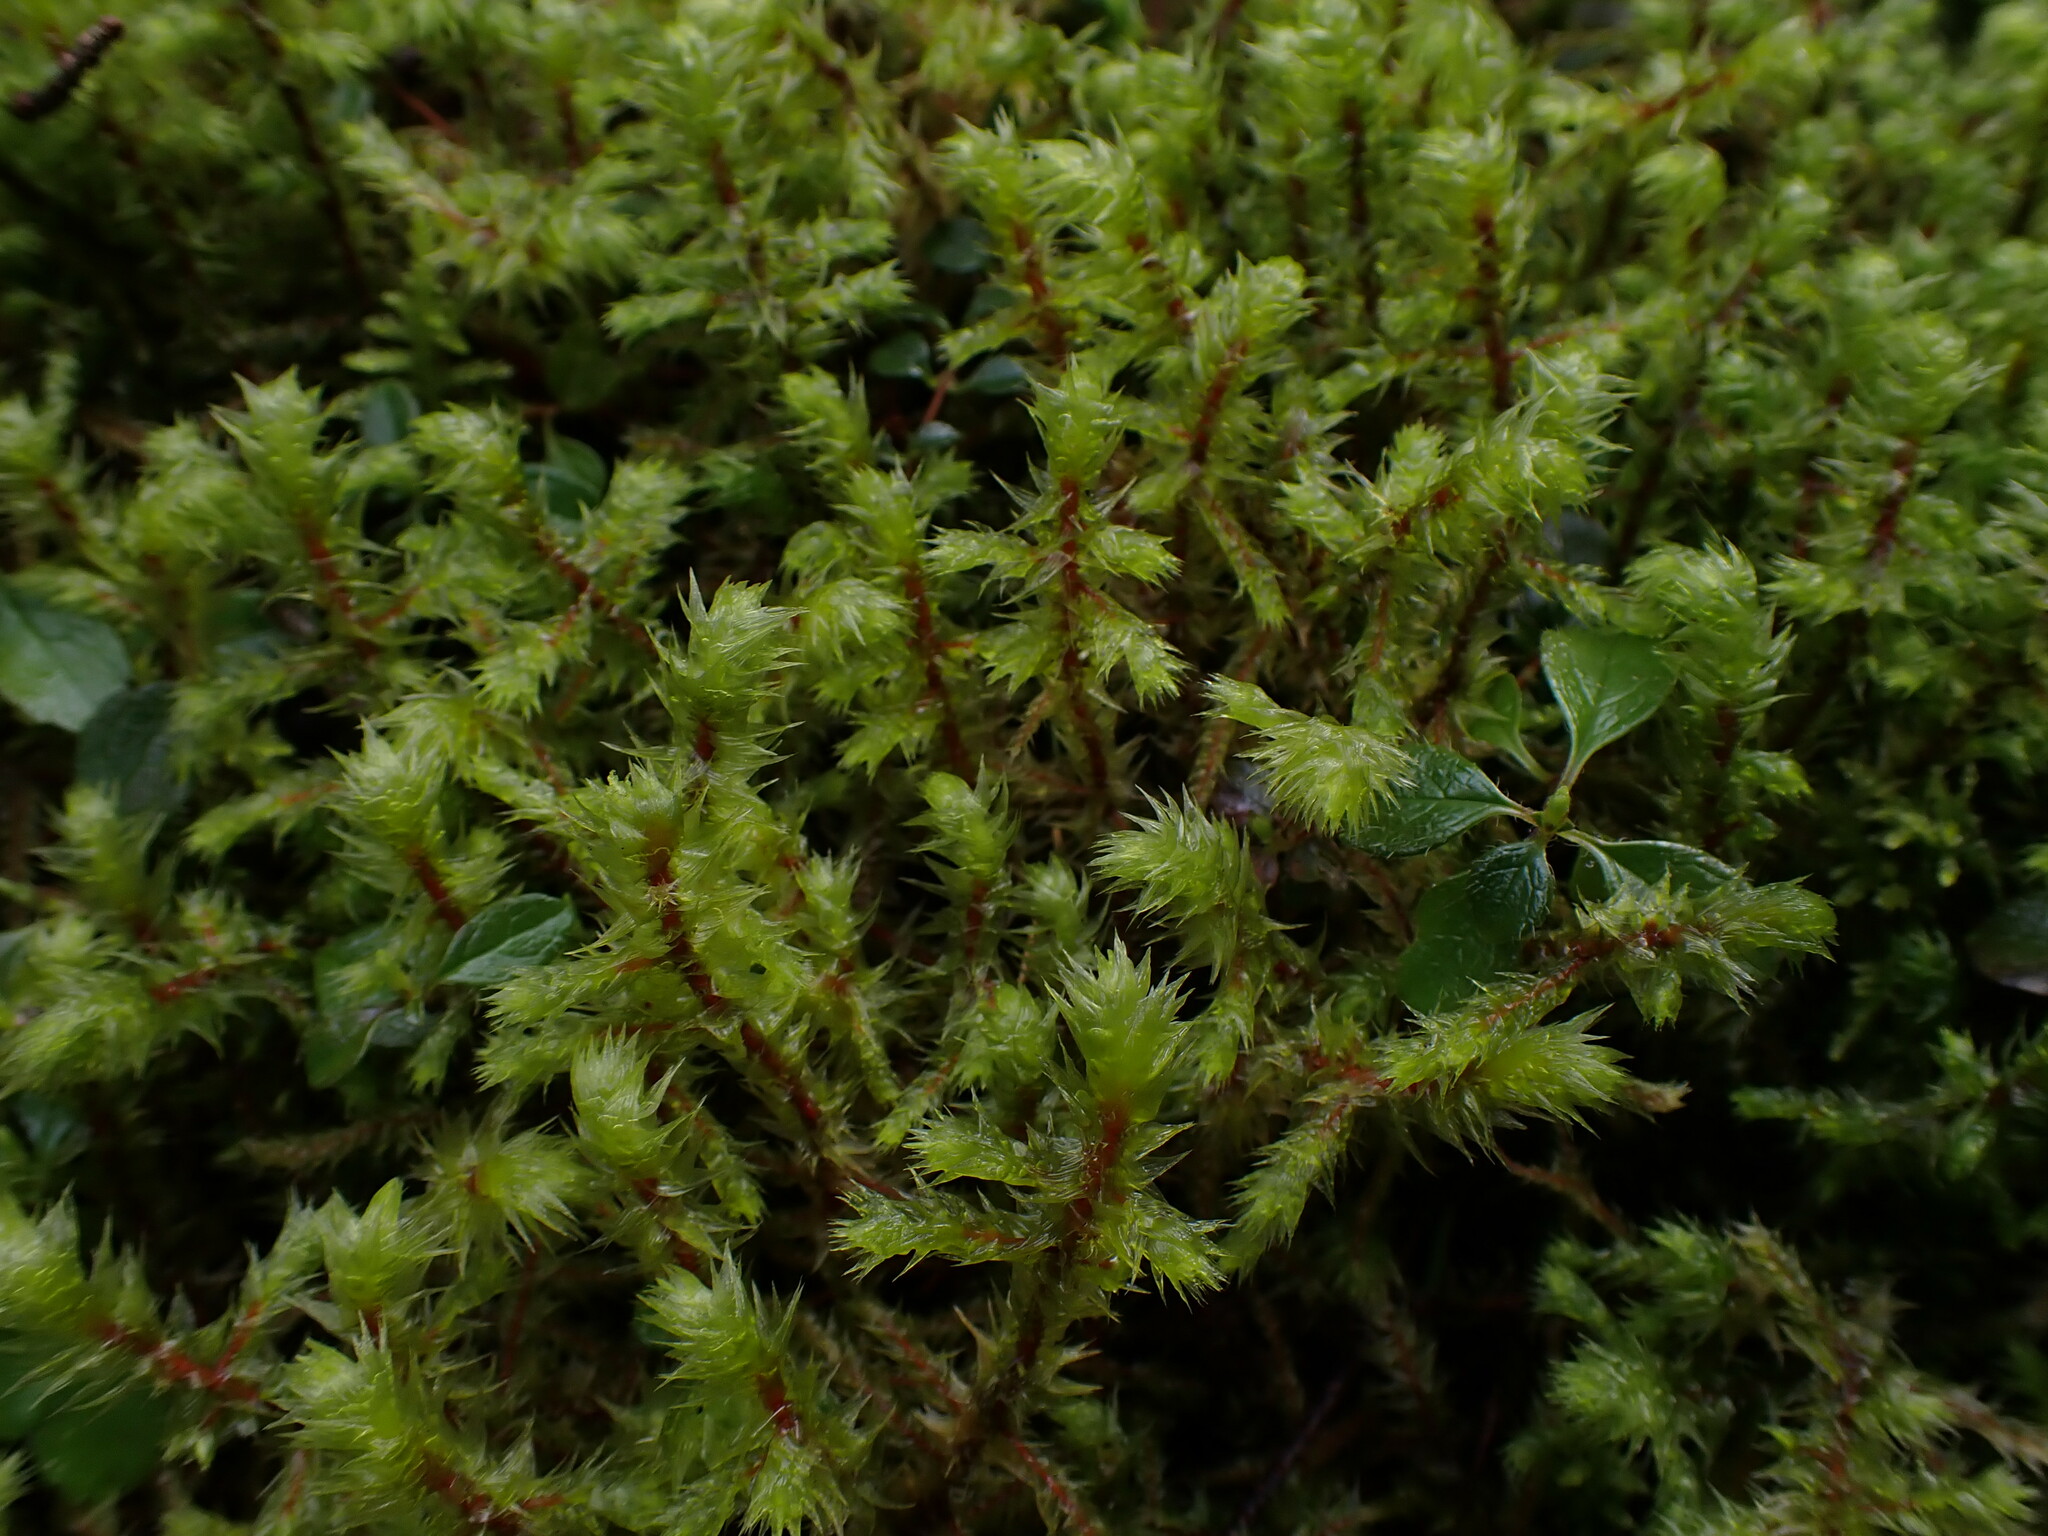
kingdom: Plantae
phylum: Bryophyta
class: Bryopsida
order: Hypnales
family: Hylocomiaceae
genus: Hylocomiadelphus
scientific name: Hylocomiadelphus triquetrus
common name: Rough goose neck moss
